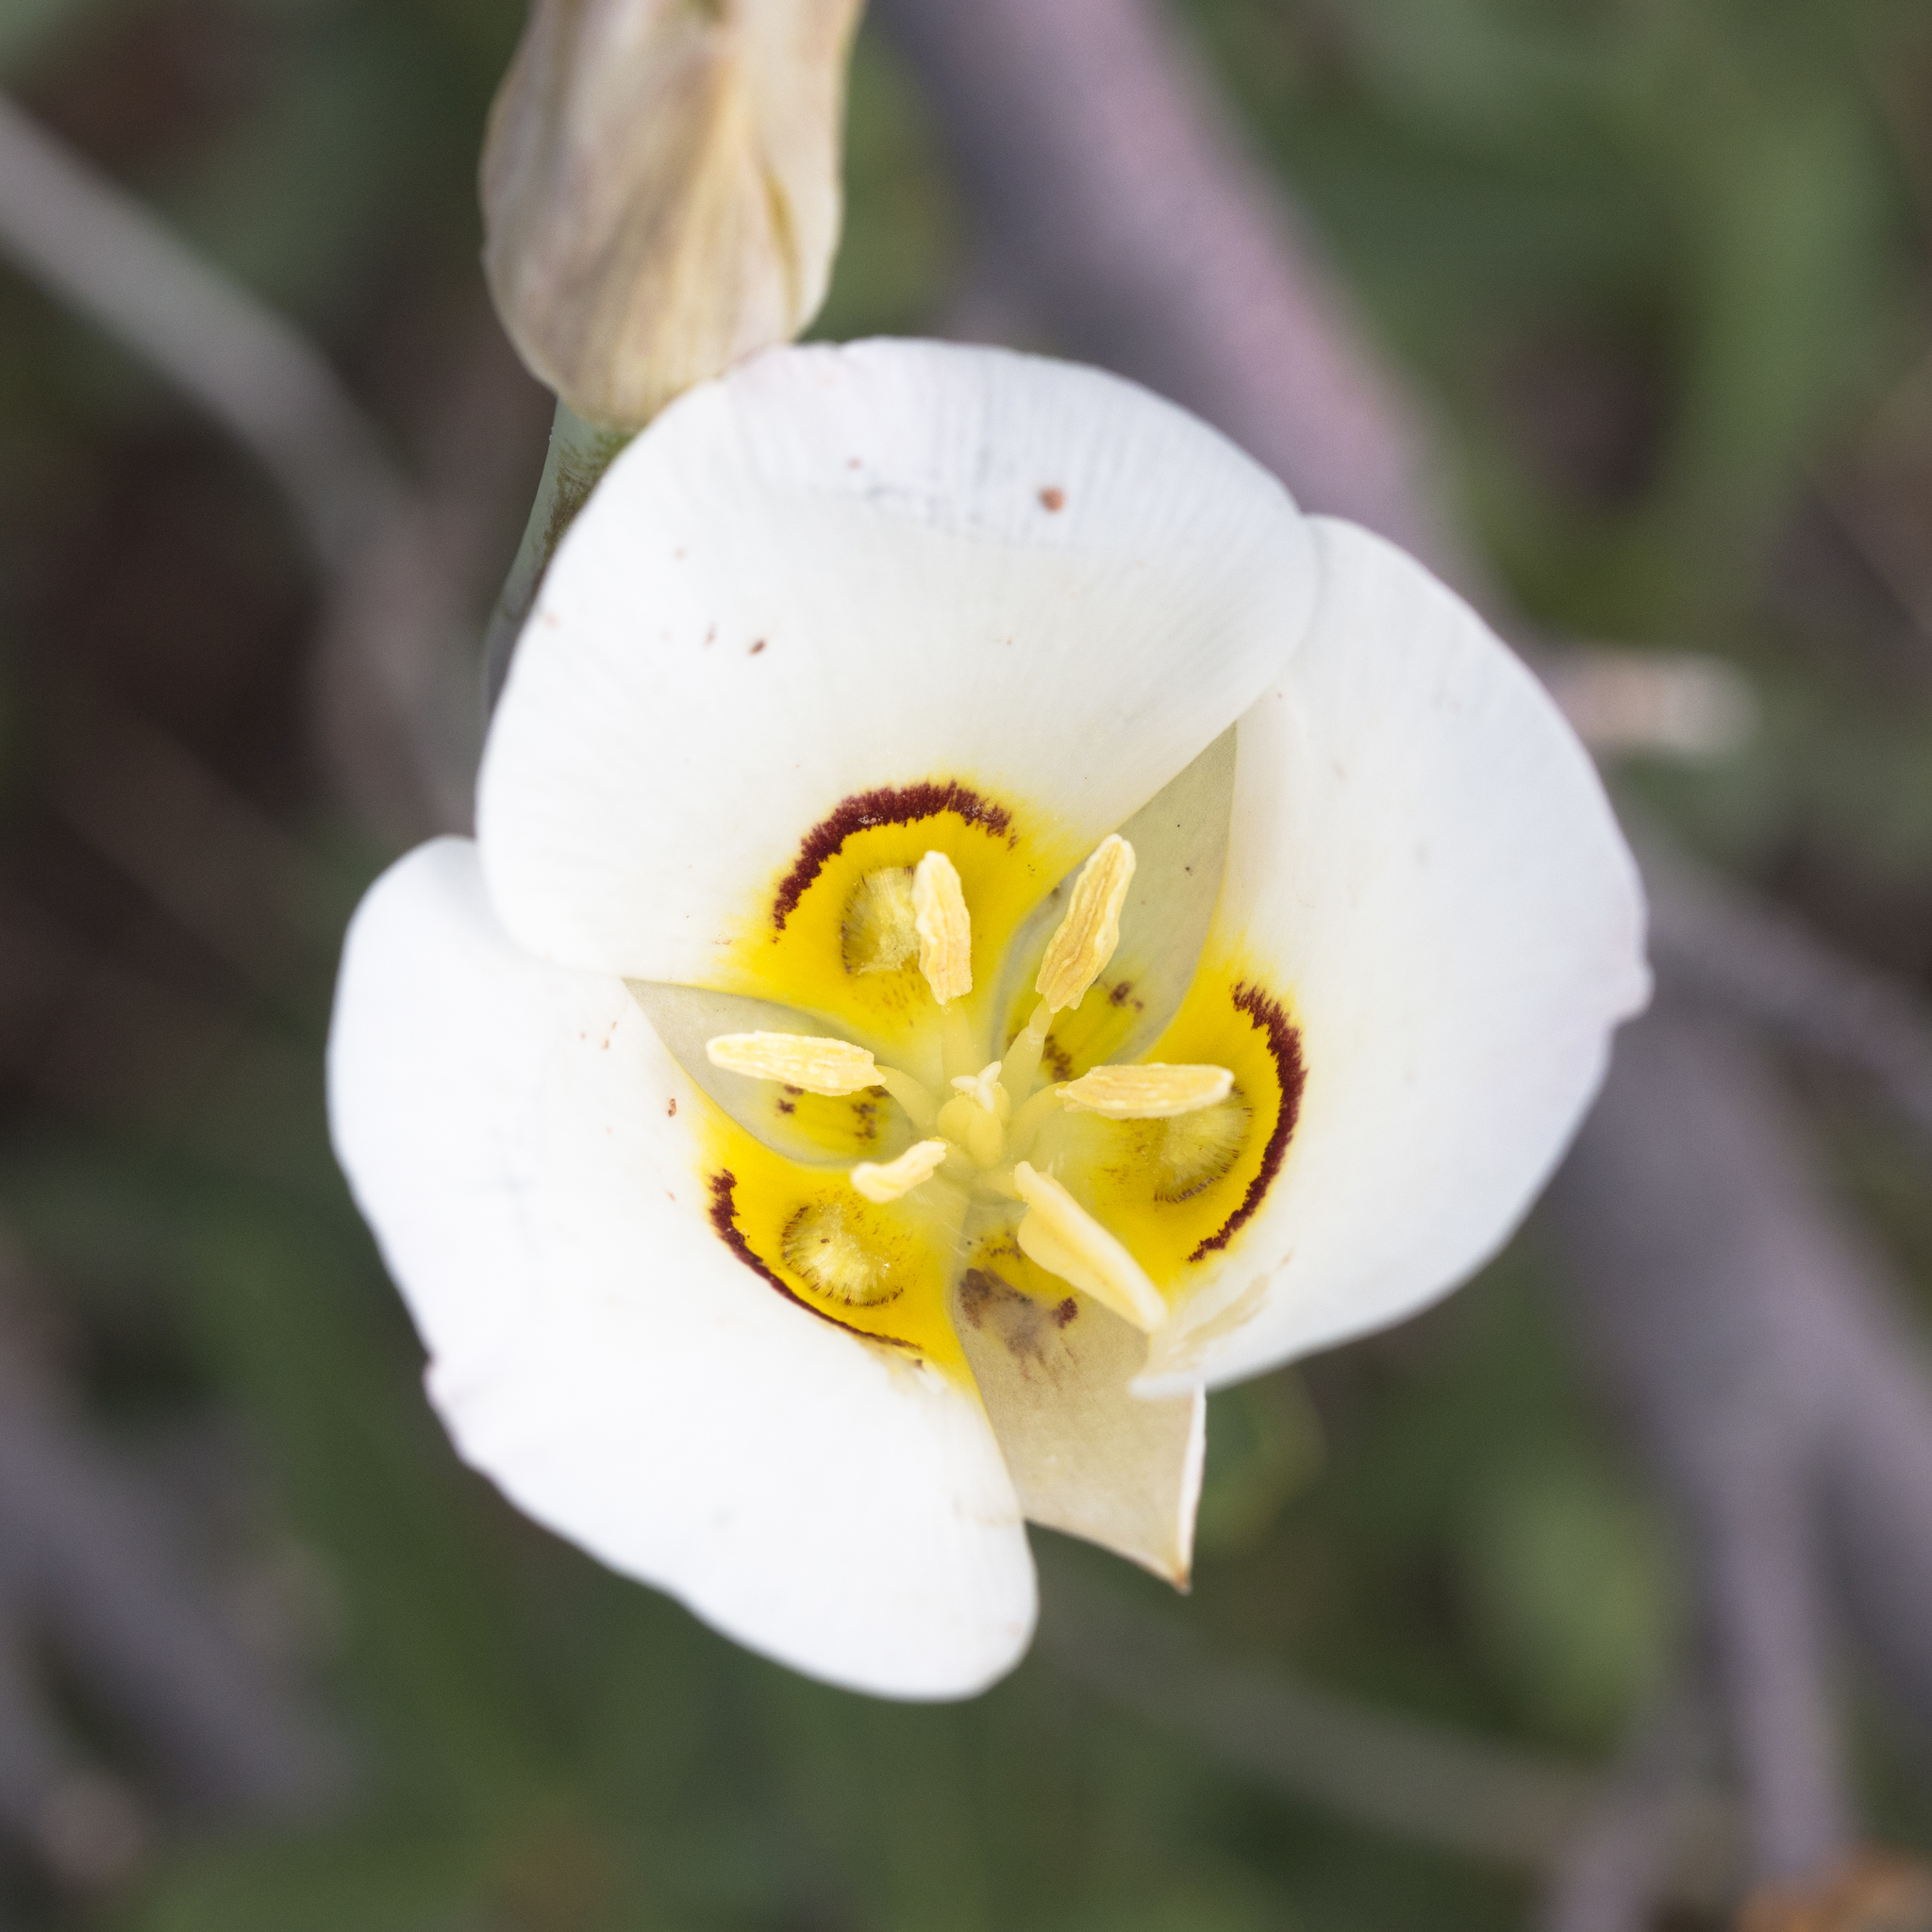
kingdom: Plantae
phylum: Tracheophyta
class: Liliopsida
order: Liliales
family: Liliaceae
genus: Calochortus
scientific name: Calochortus nuttallii
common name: Sego-lily
